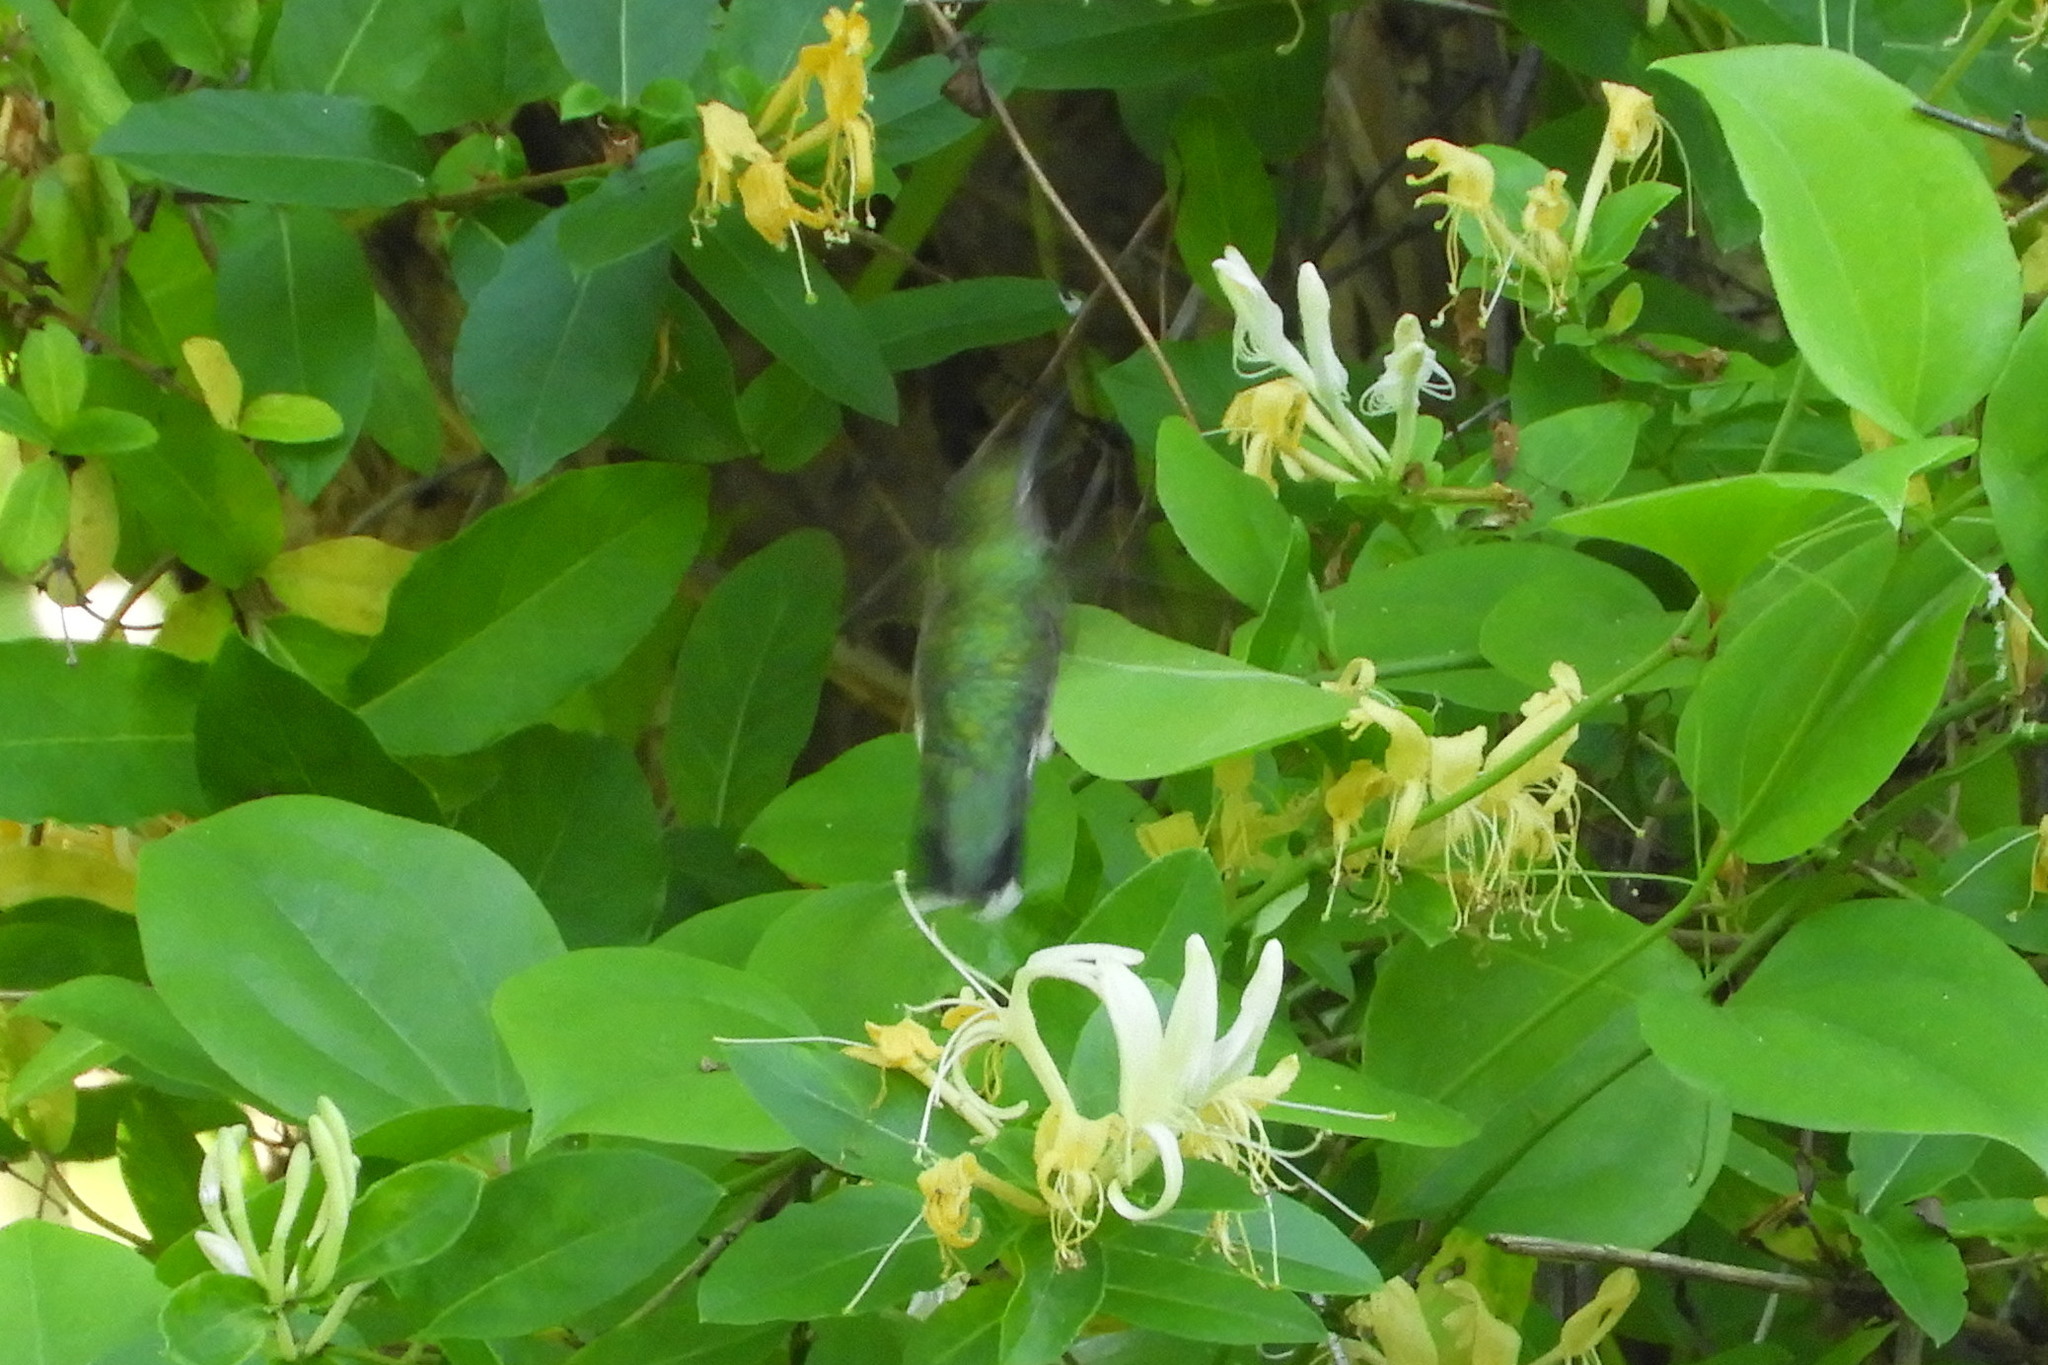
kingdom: Animalia
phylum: Chordata
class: Aves
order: Apodiformes
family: Trochilidae
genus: Archilochus
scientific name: Archilochus colubris
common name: Ruby-throated hummingbird
